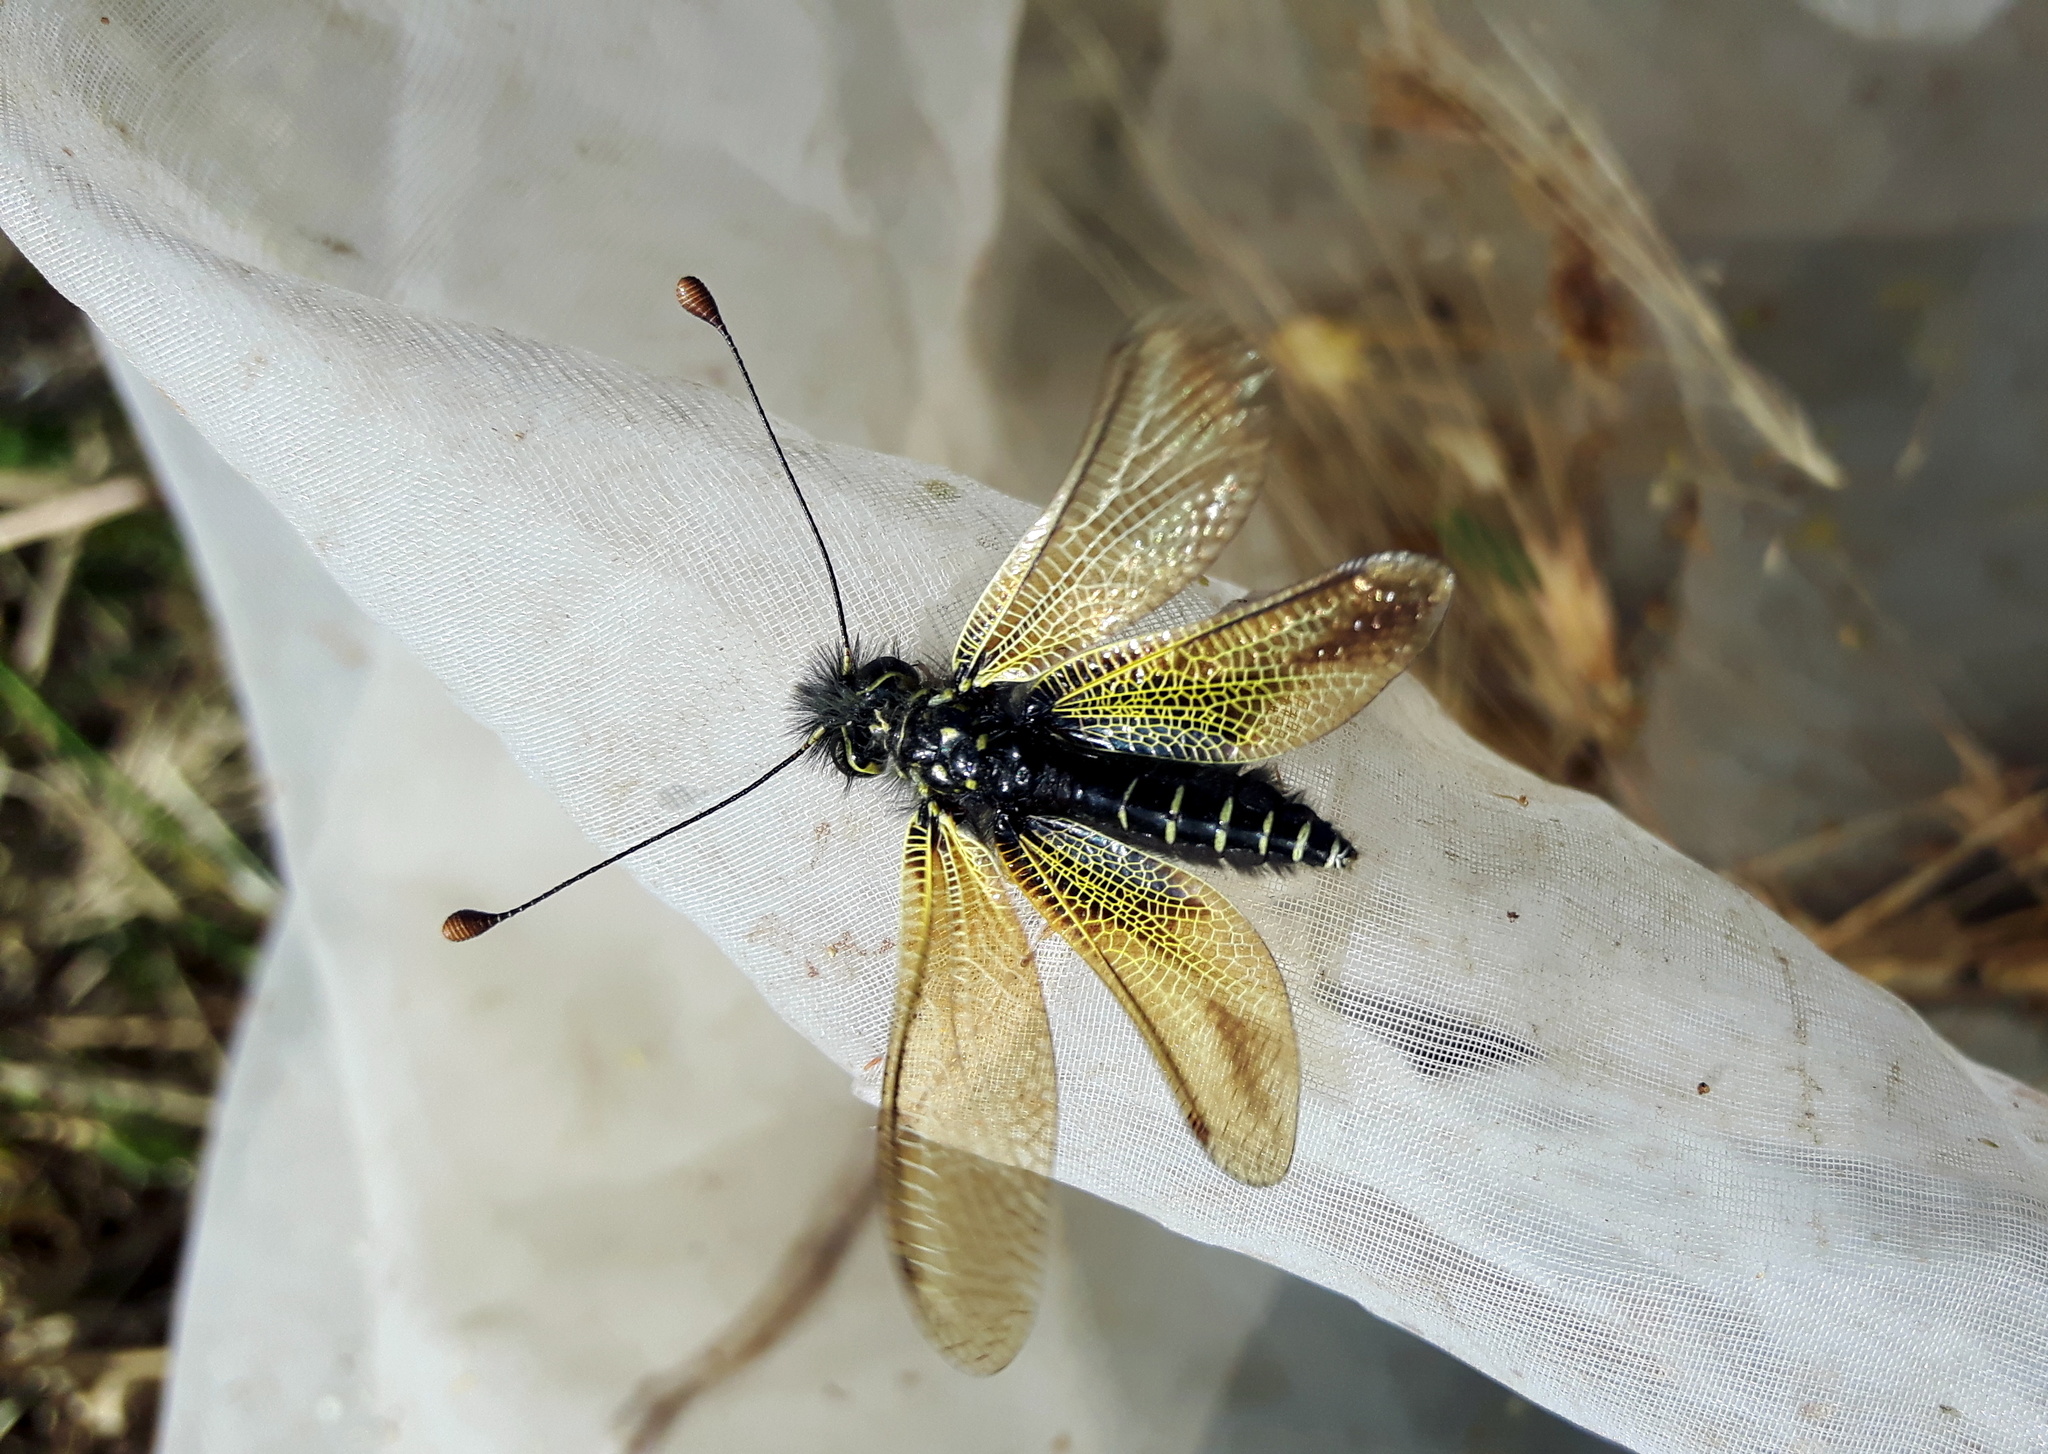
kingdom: Animalia
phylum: Arthropoda
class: Insecta
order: Neuroptera
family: Ascalaphidae
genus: Libelloides
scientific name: Libelloides ictericus
